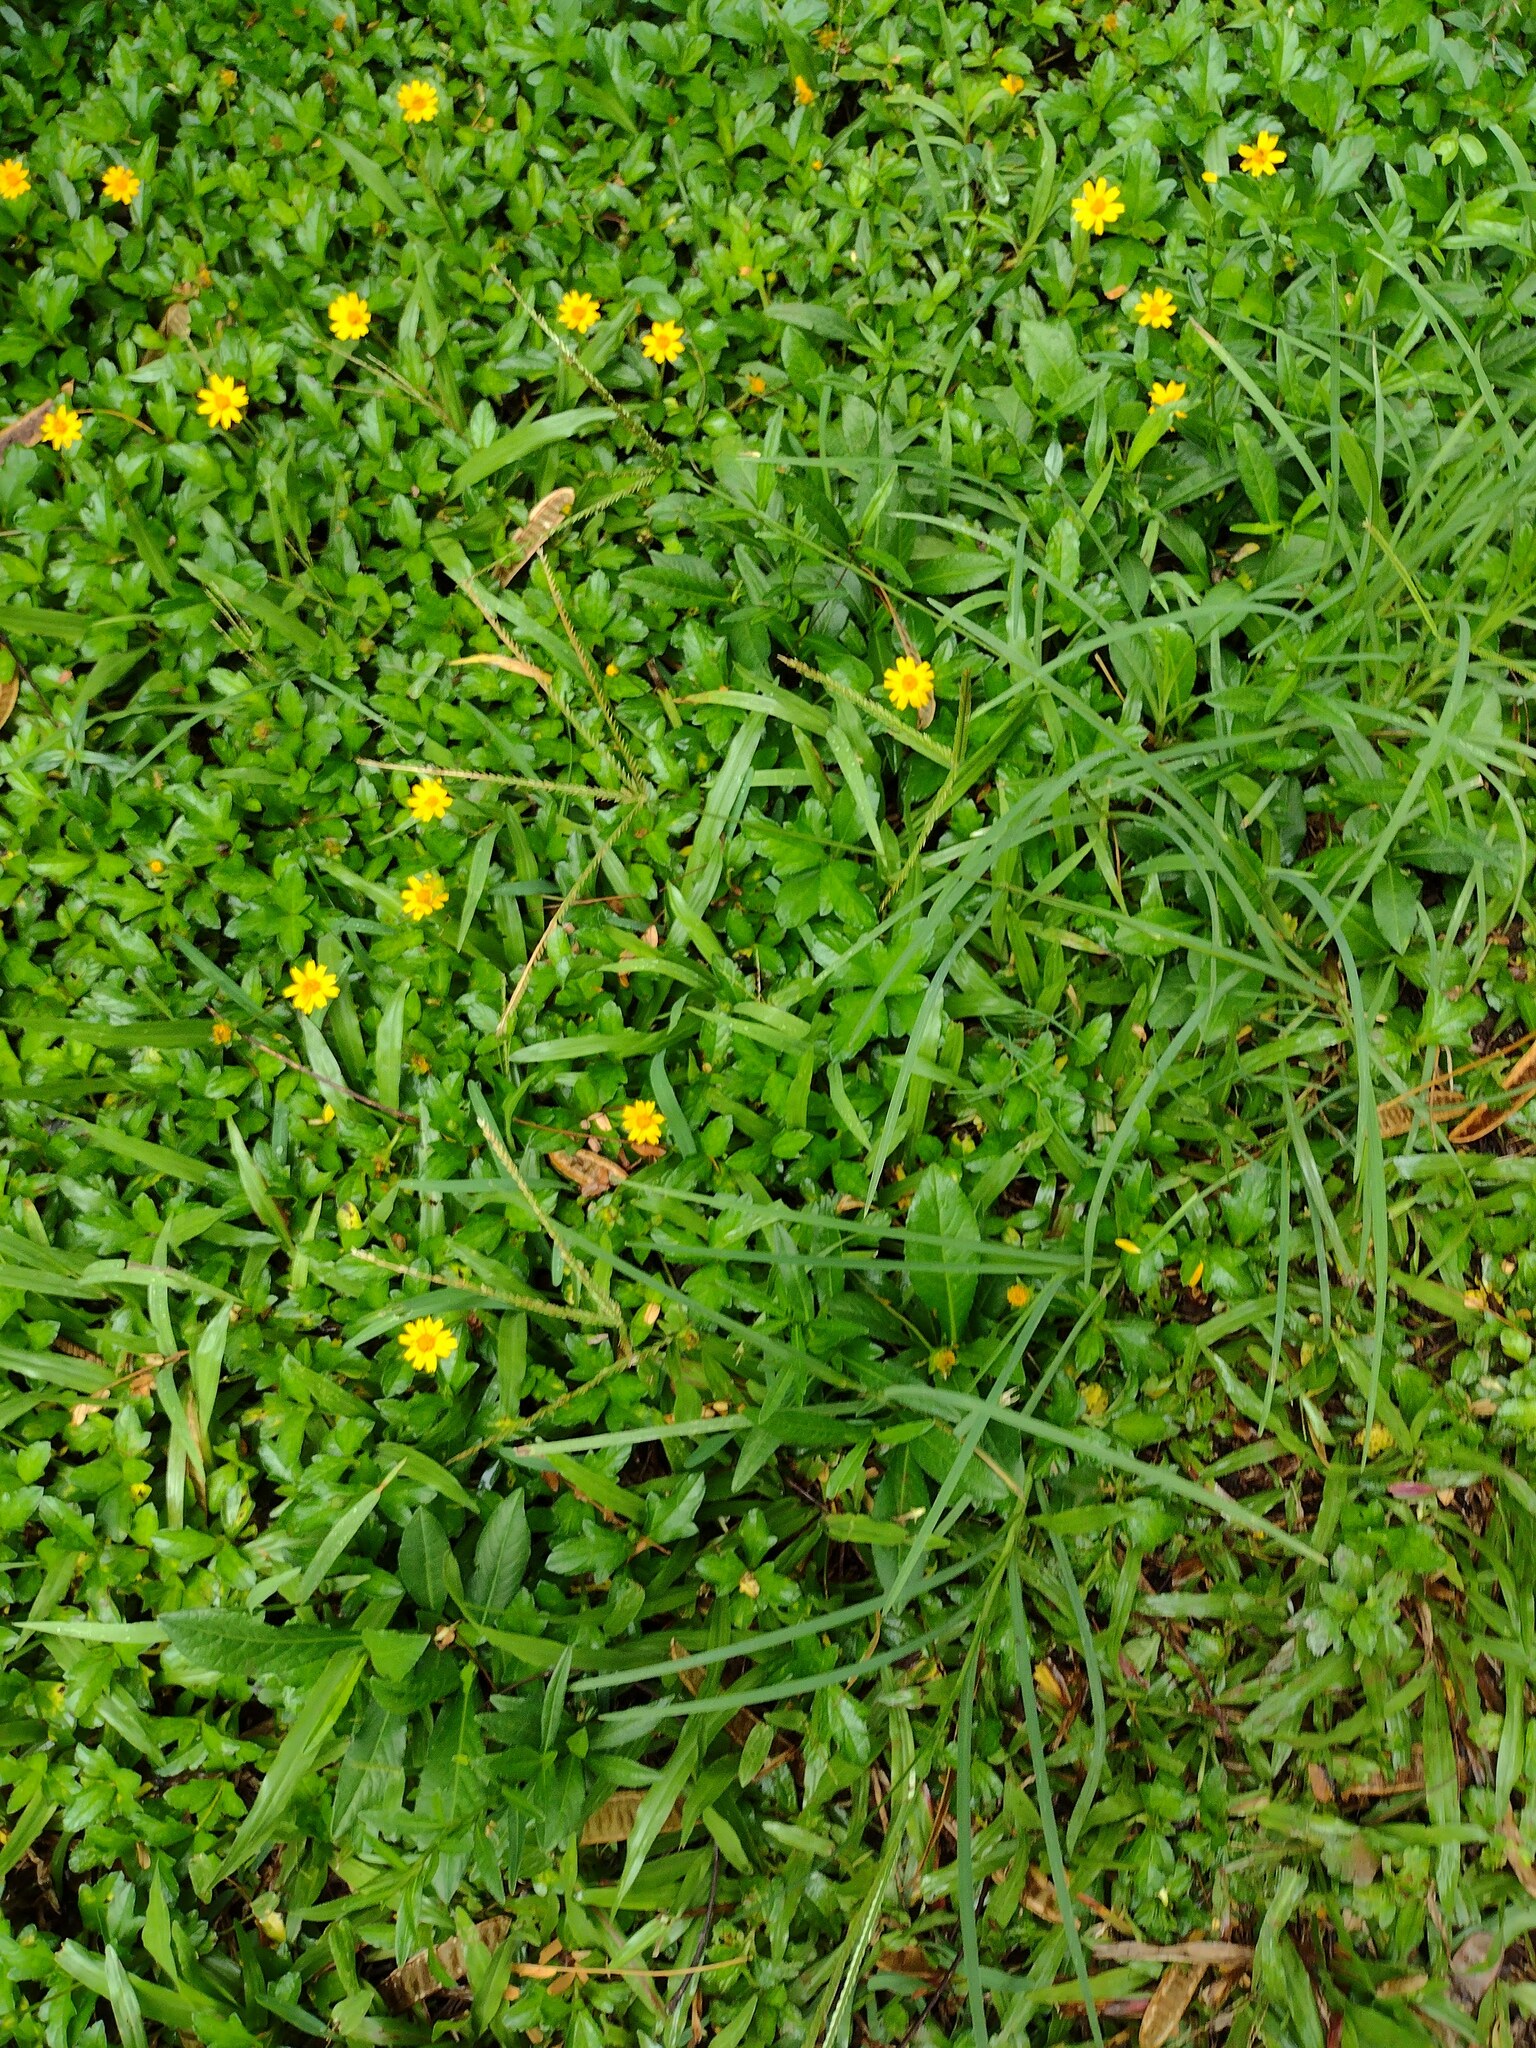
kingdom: Plantae
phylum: Tracheophyta
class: Liliopsida
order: Poales
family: Poaceae
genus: Eleusine
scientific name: Eleusine indica
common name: Yard-grass
